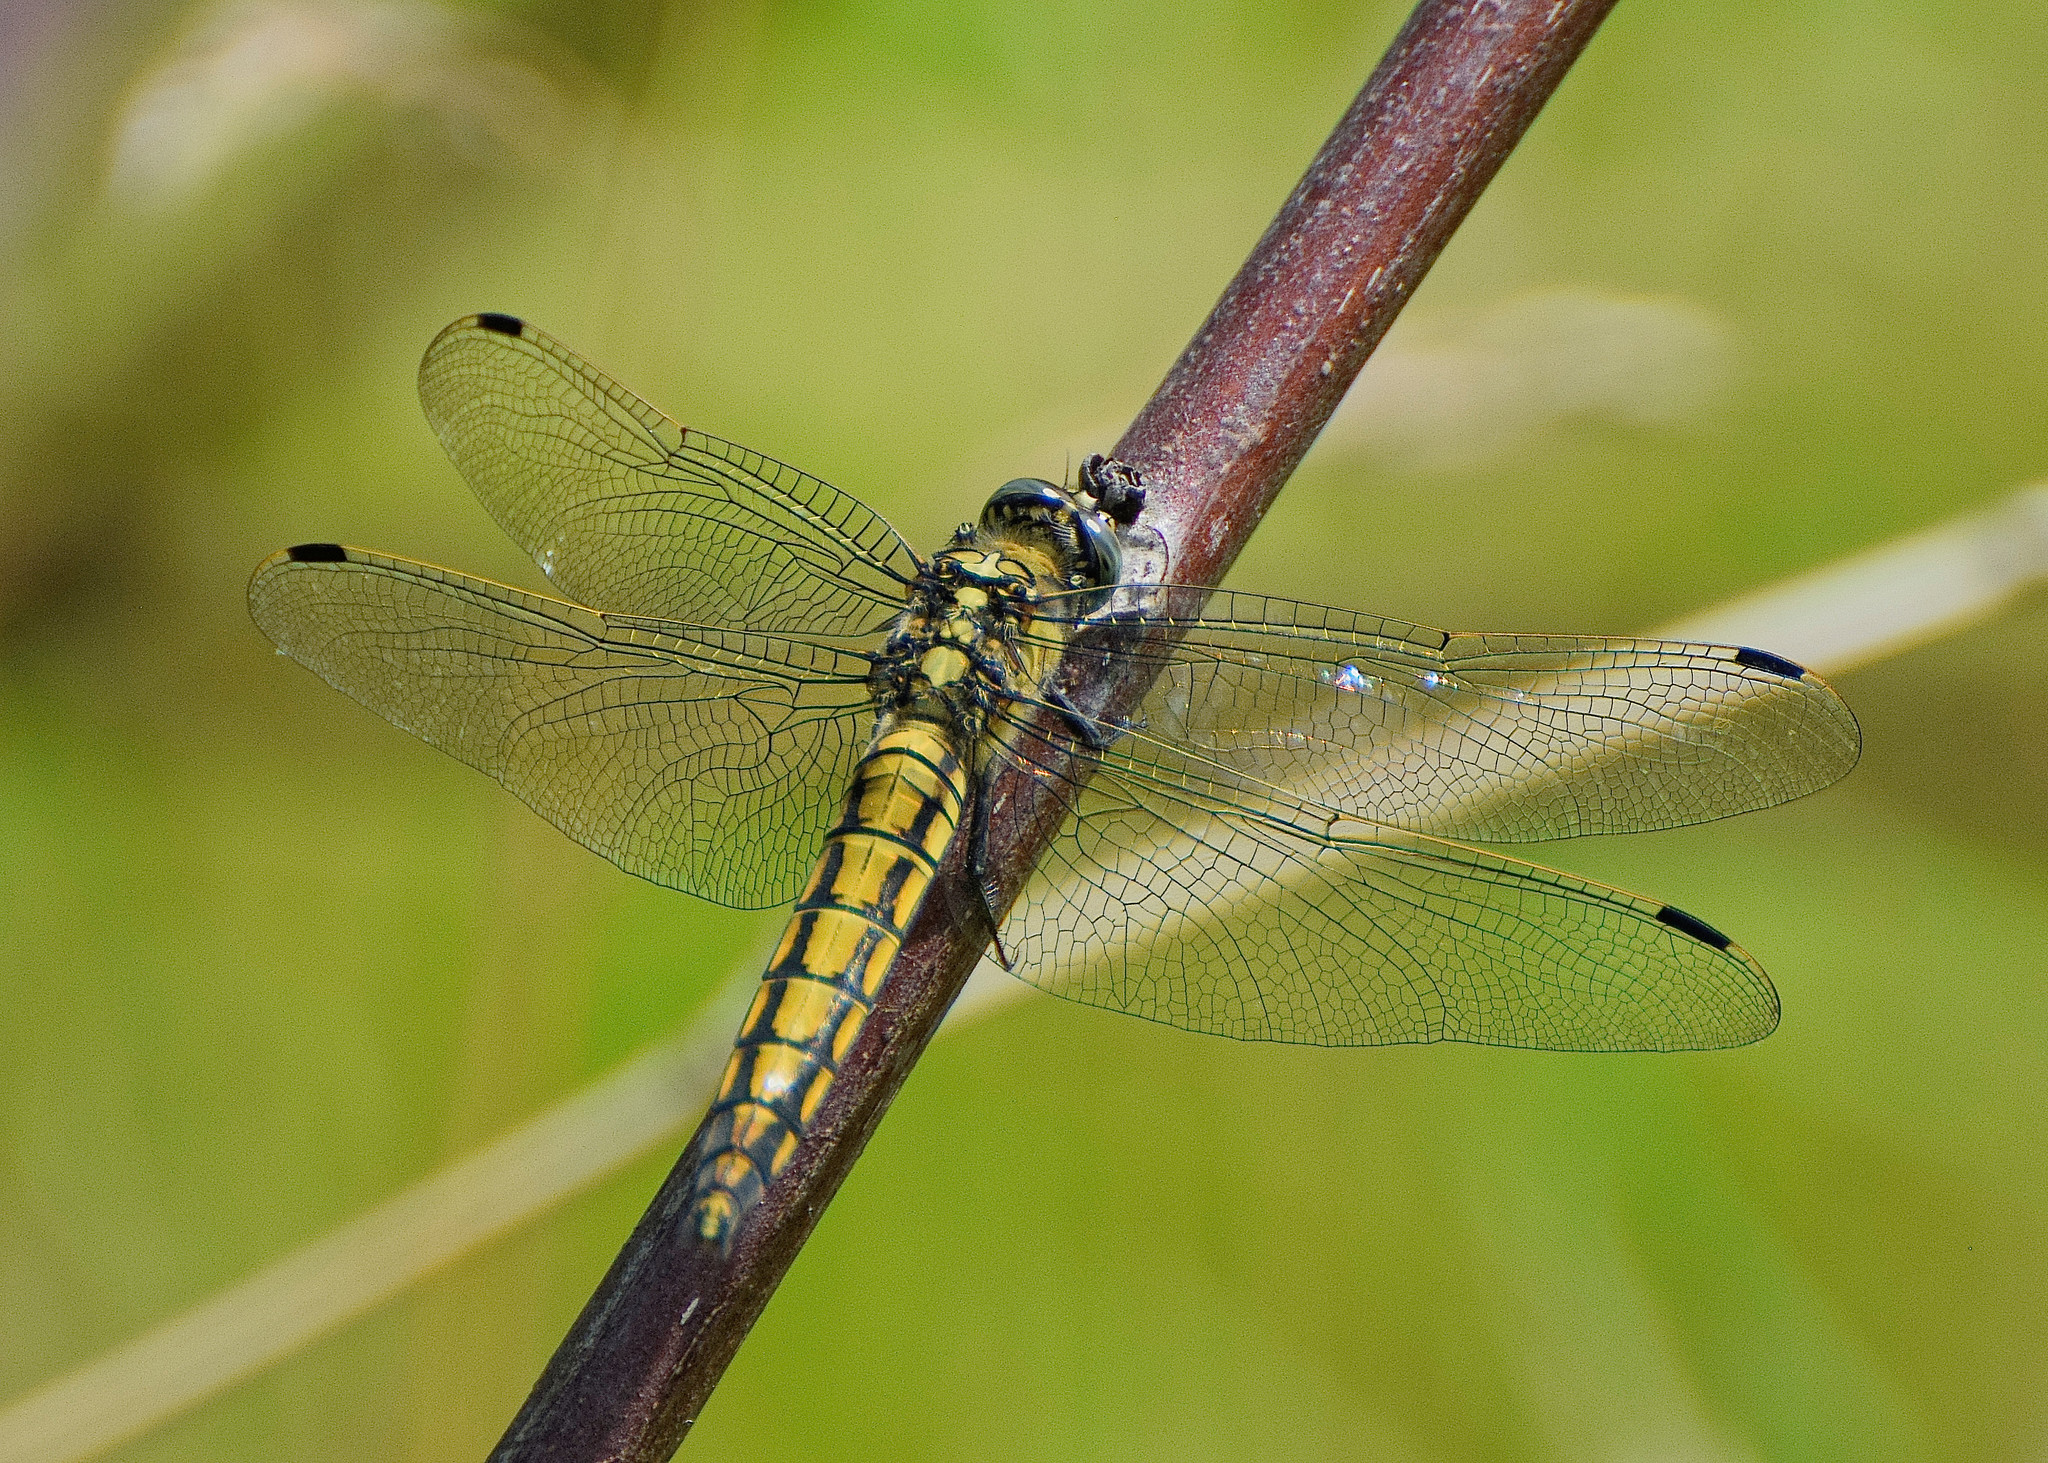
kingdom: Animalia
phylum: Arthropoda
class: Insecta
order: Odonata
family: Libellulidae
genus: Orthetrum
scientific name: Orthetrum cancellatum
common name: Black-tailed skimmer
